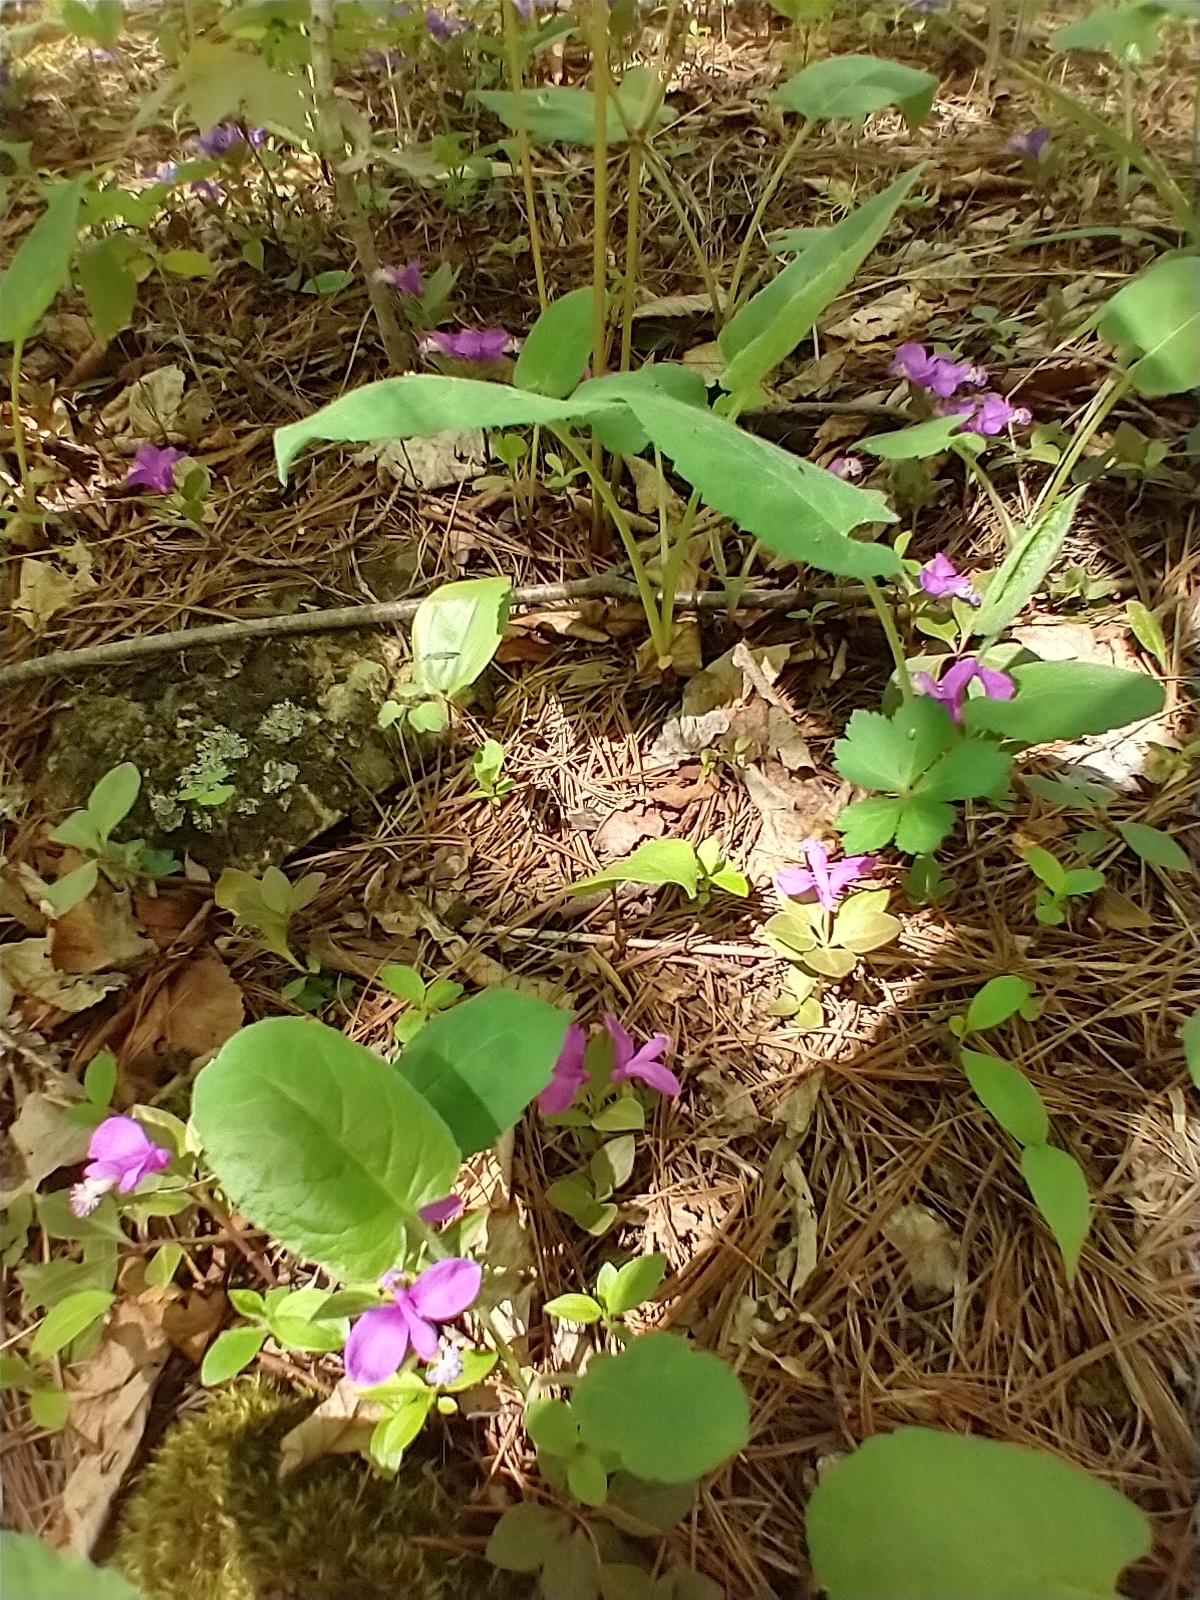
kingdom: Plantae
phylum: Tracheophyta
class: Magnoliopsida
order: Fabales
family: Polygalaceae
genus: Polygaloides
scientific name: Polygaloides paucifolia
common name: Bird-on-the-wing
